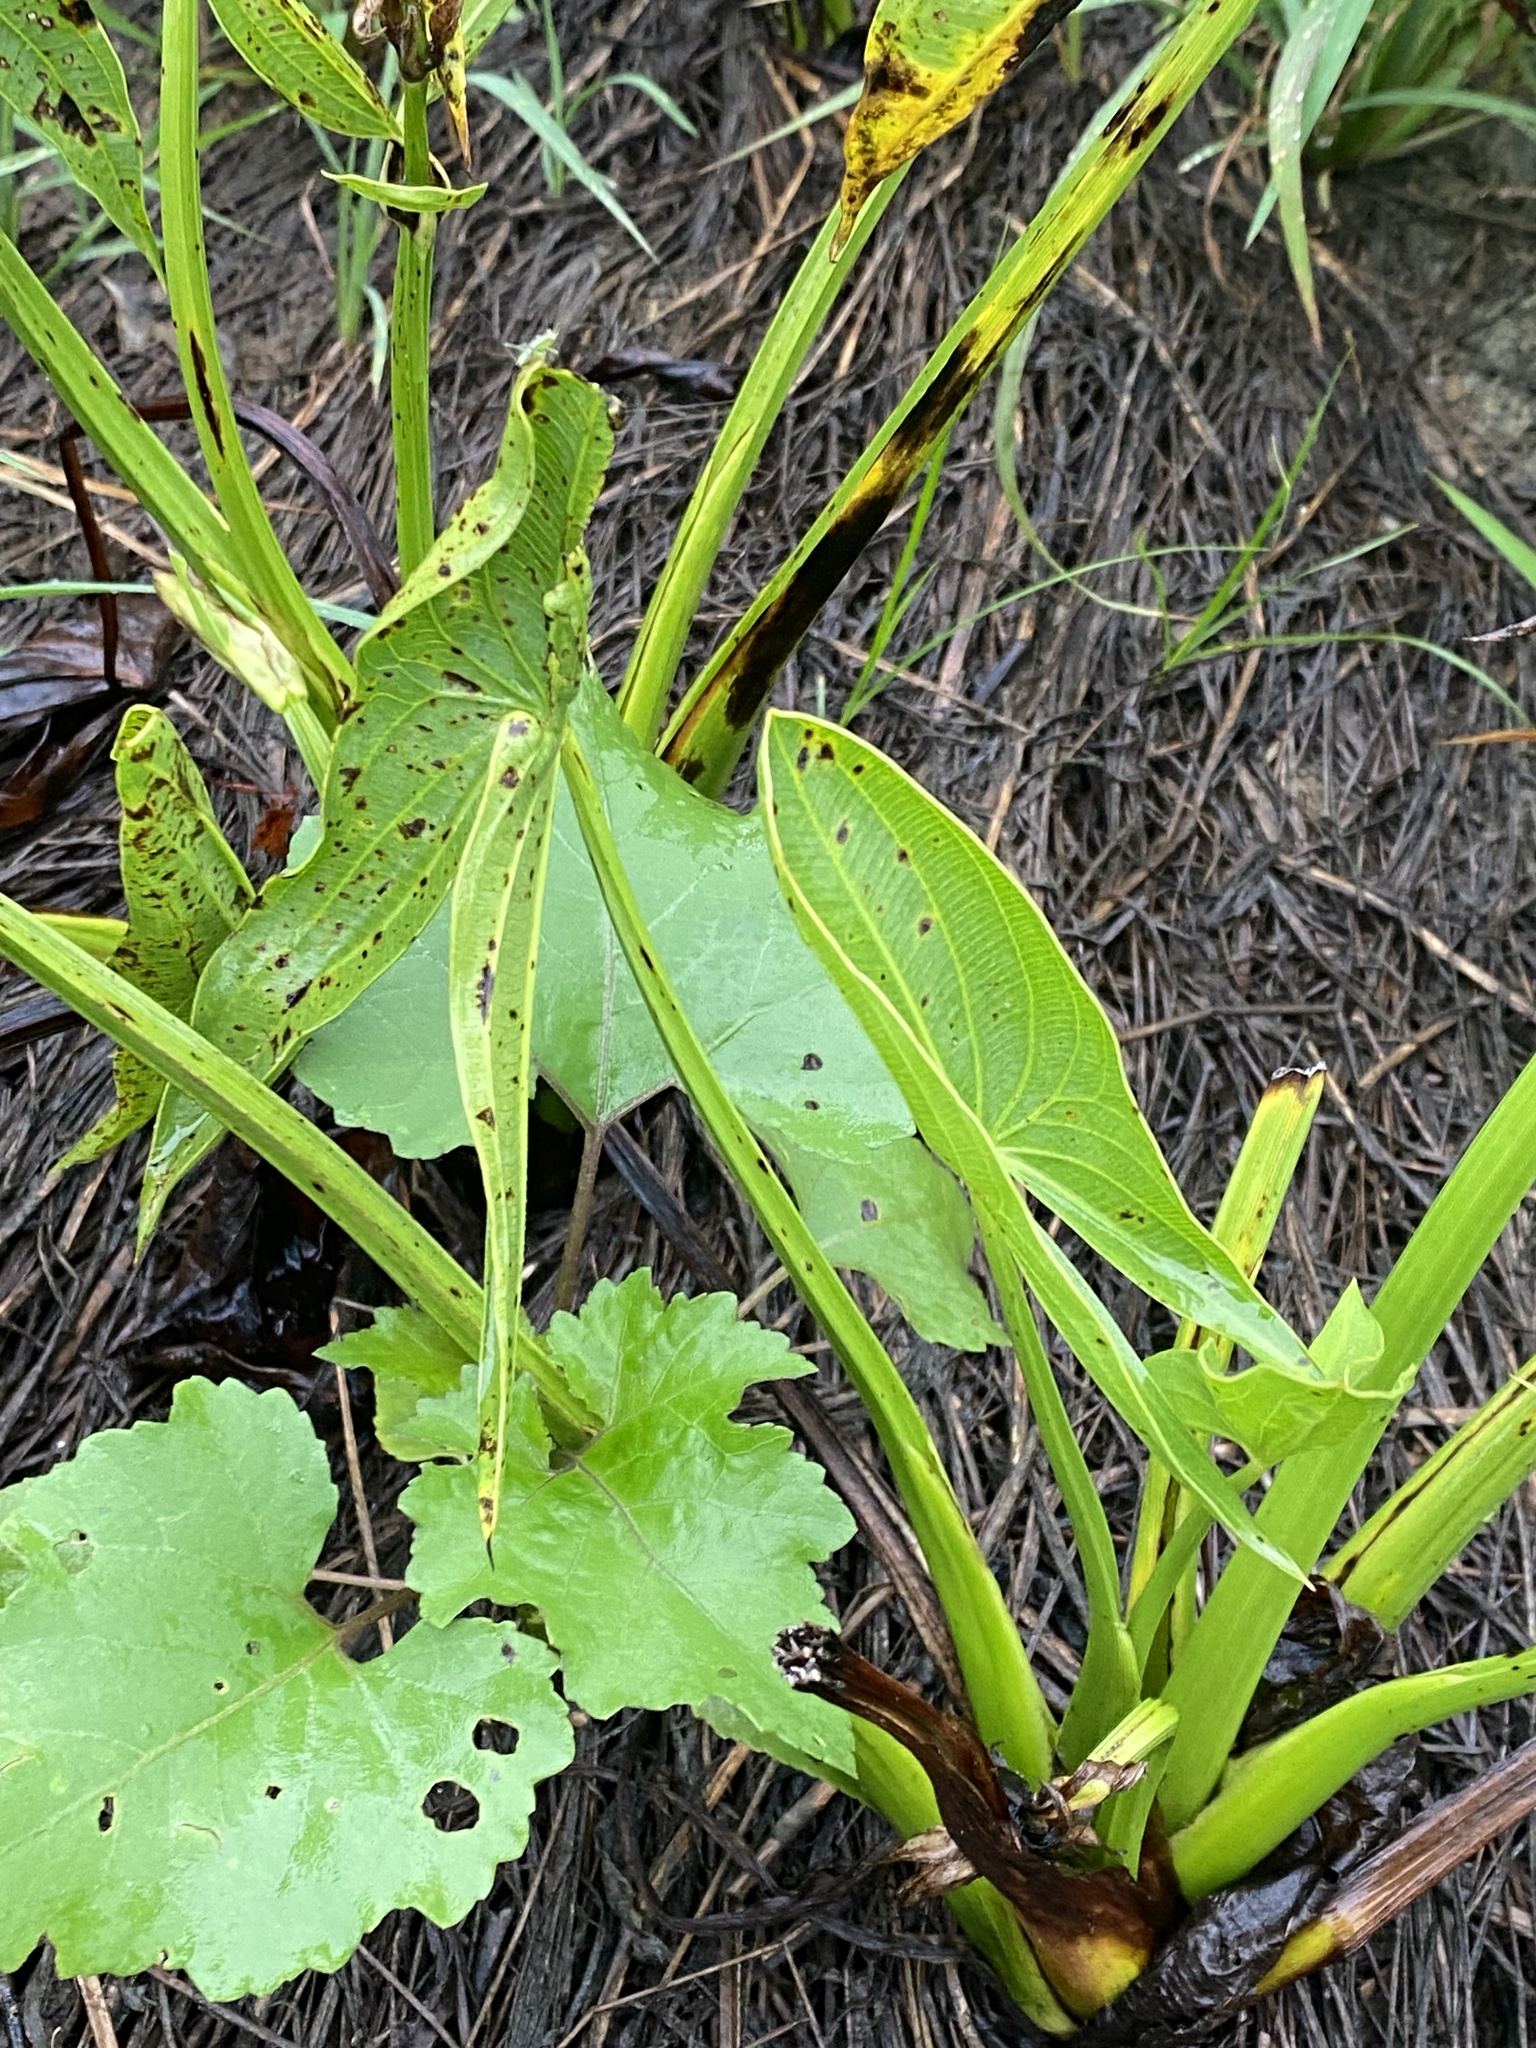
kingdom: Plantae
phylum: Tracheophyta
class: Liliopsida
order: Alismatales
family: Alismataceae
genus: Sagittaria
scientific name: Sagittaria brevirostra
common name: Midwestern arrowhead
